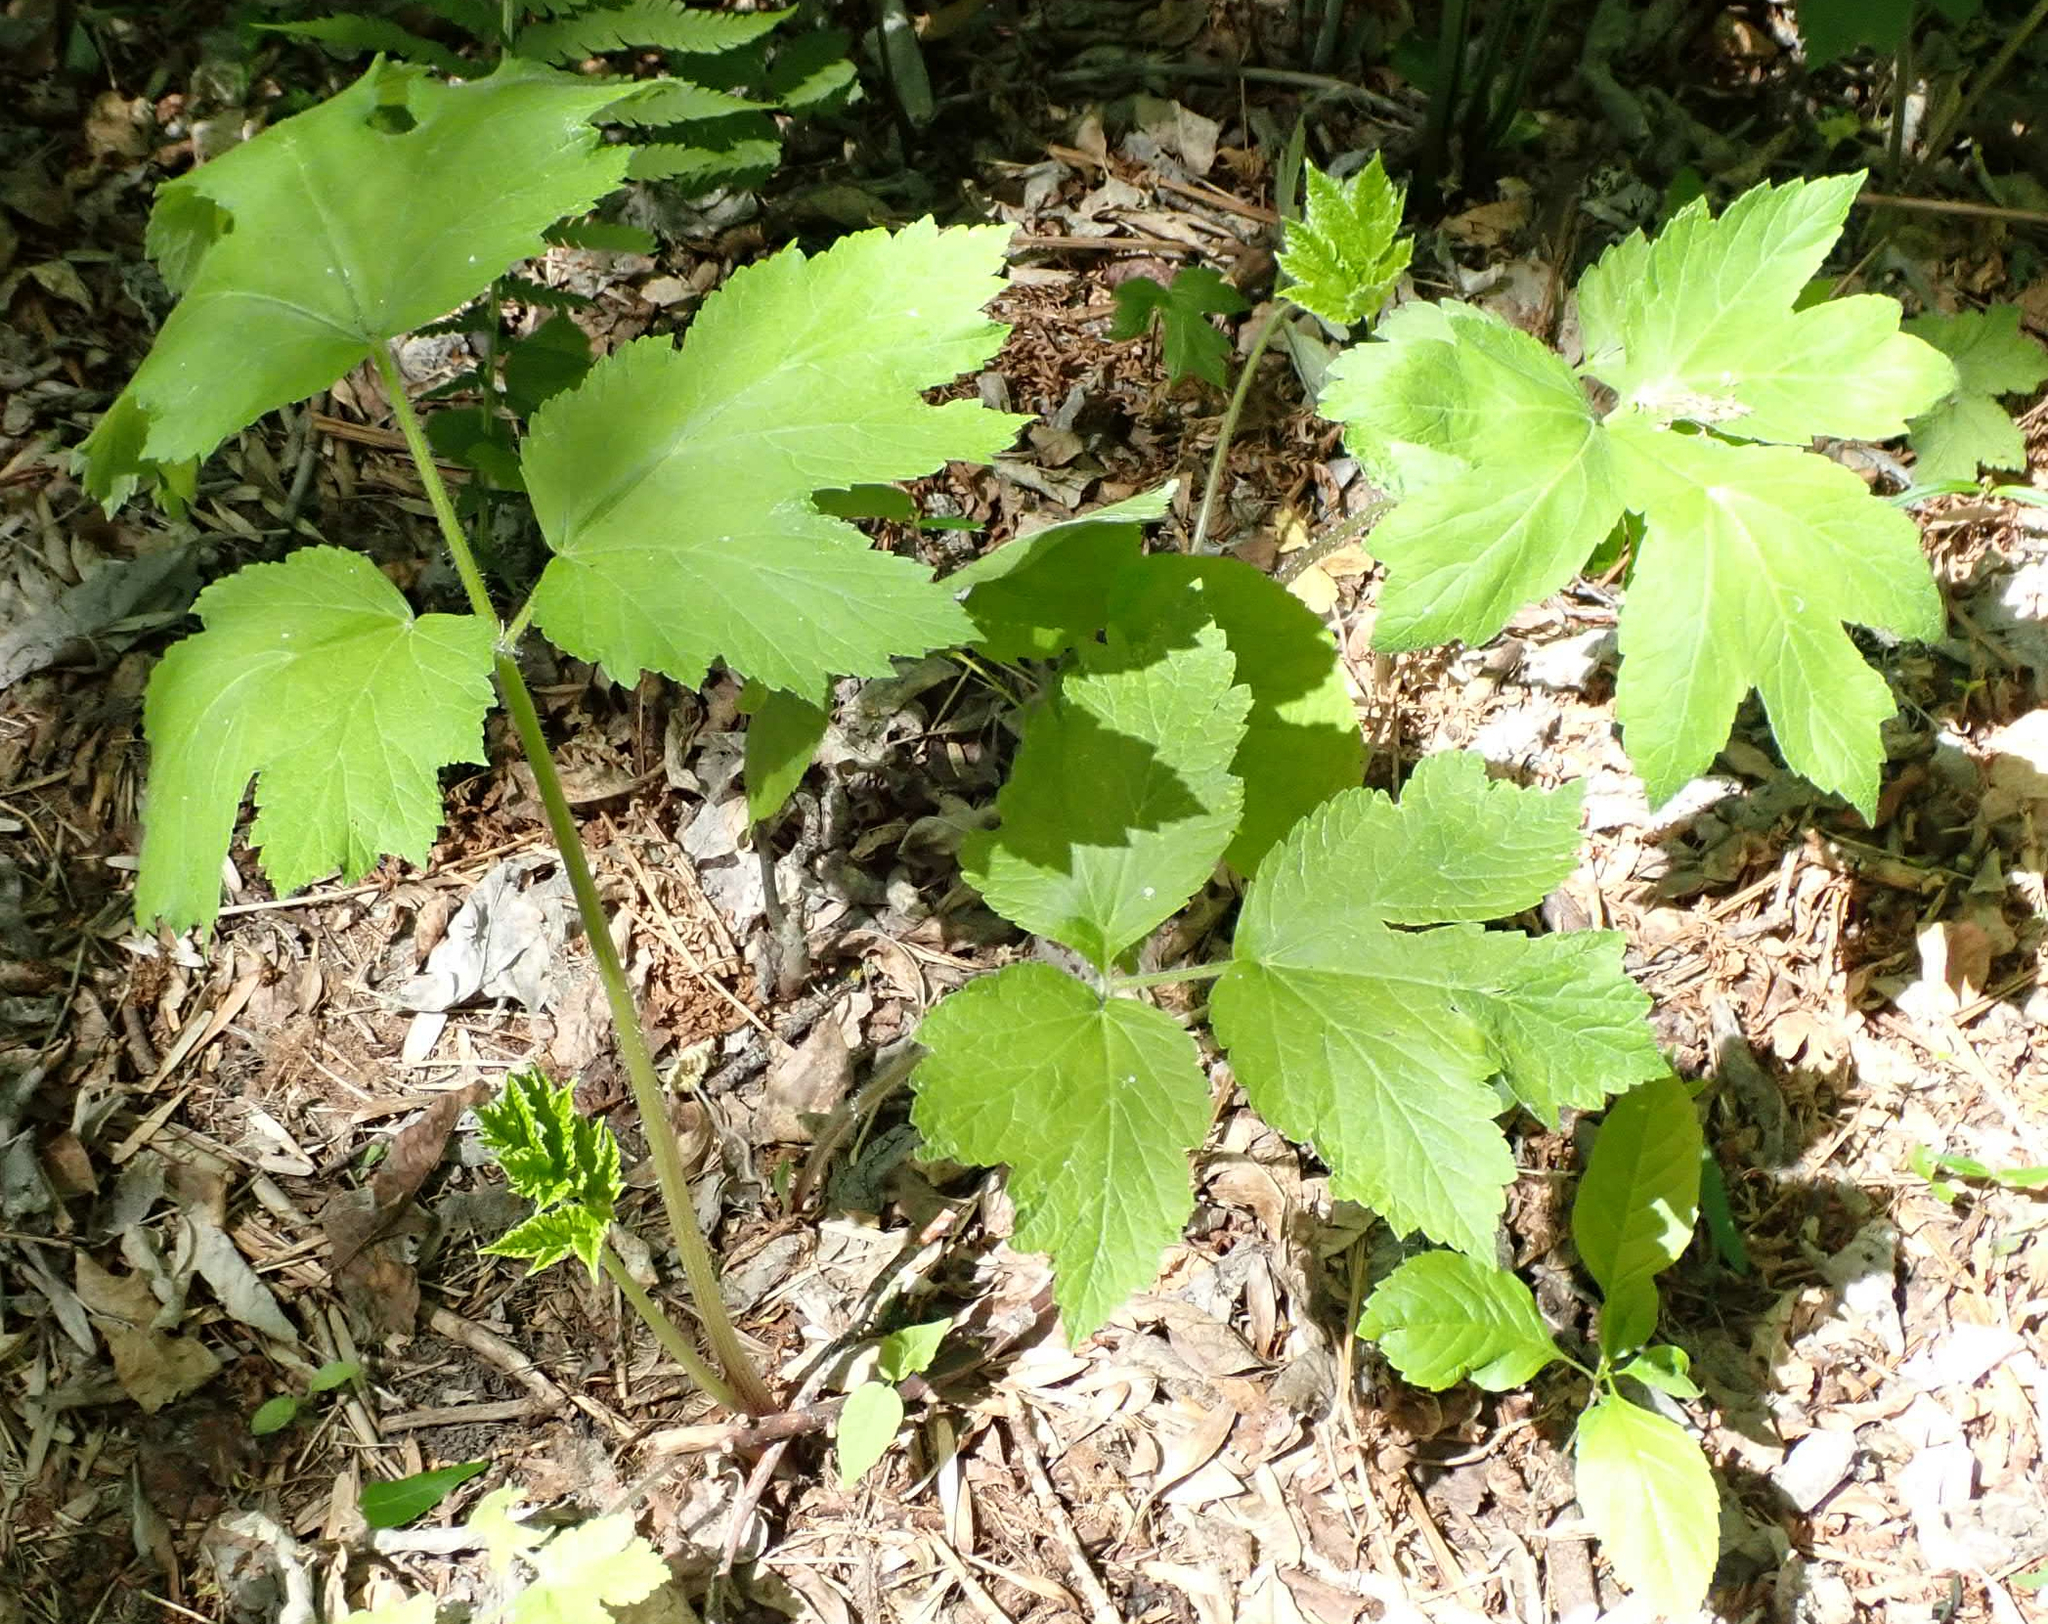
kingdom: Plantae
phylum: Tracheophyta
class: Magnoliopsida
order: Apiales
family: Apiaceae
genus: Heracleum
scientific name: Heracleum maximum
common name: American cow parsnip
